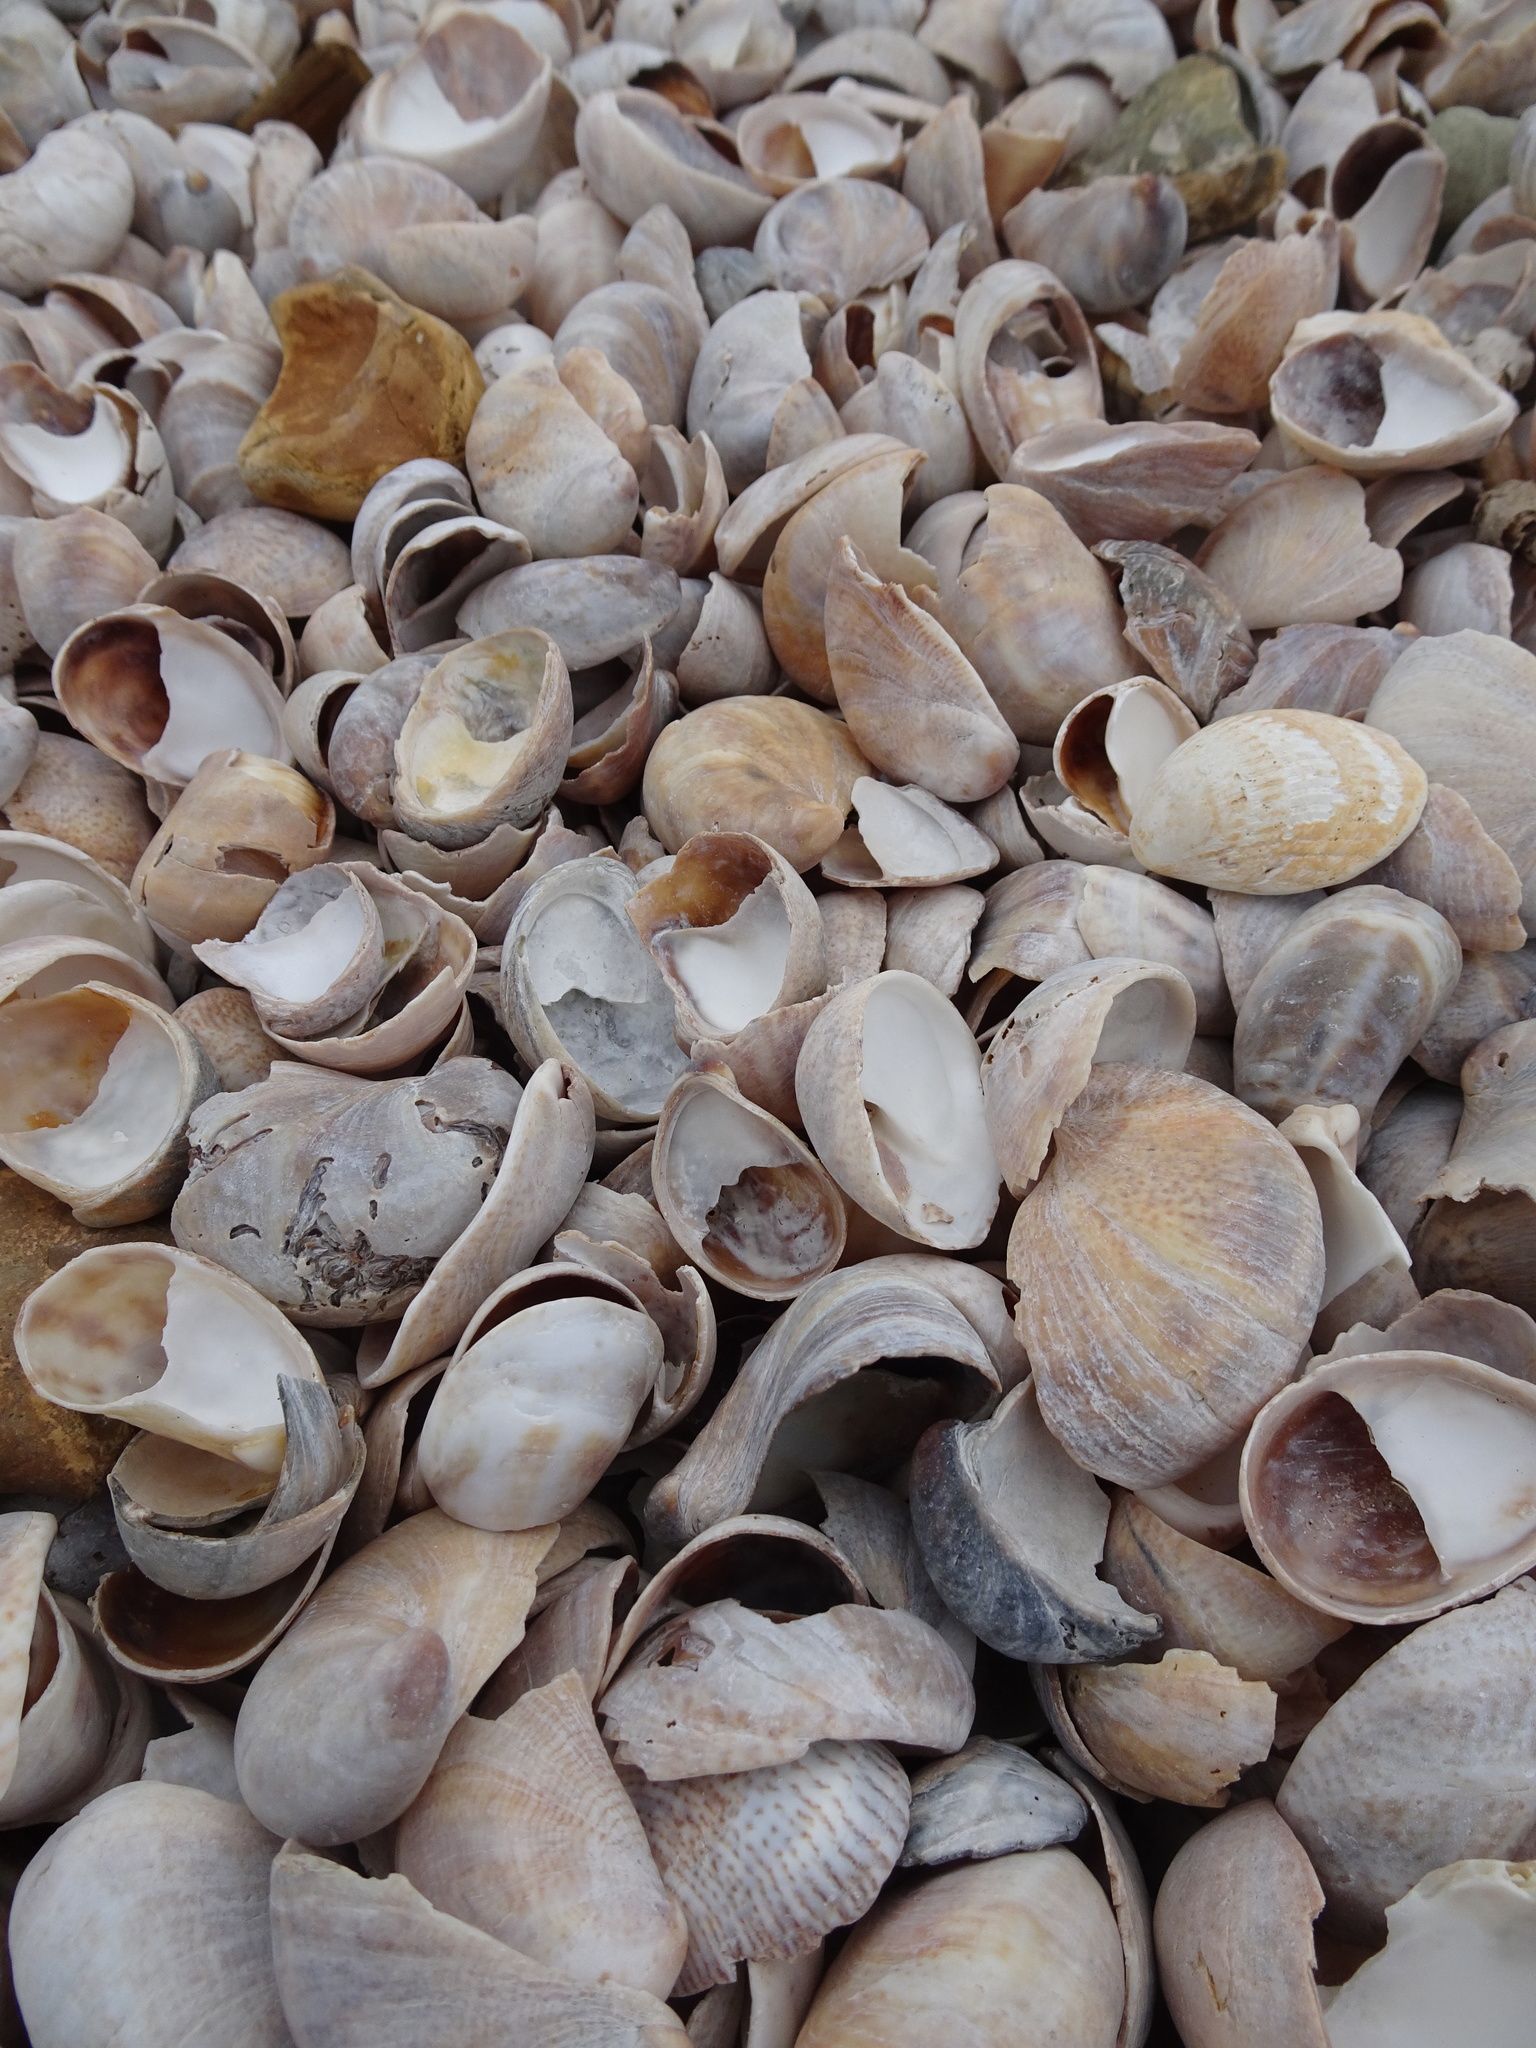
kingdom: Animalia
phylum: Mollusca
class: Gastropoda
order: Littorinimorpha
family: Calyptraeidae
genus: Crepidula
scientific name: Crepidula fornicata
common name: Slipper limpet
